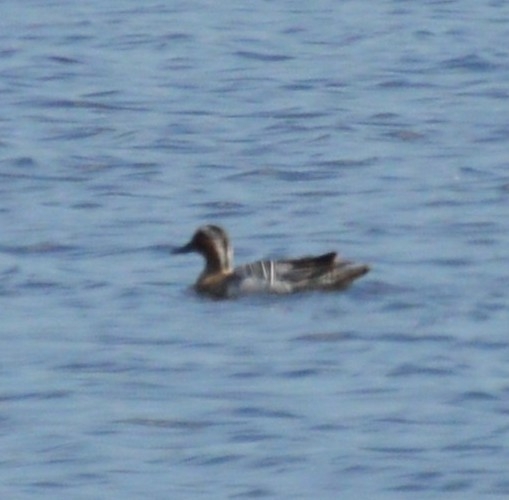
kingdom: Animalia
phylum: Chordata
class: Aves
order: Anseriformes
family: Anatidae
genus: Spatula
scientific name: Spatula querquedula
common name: Garganey
